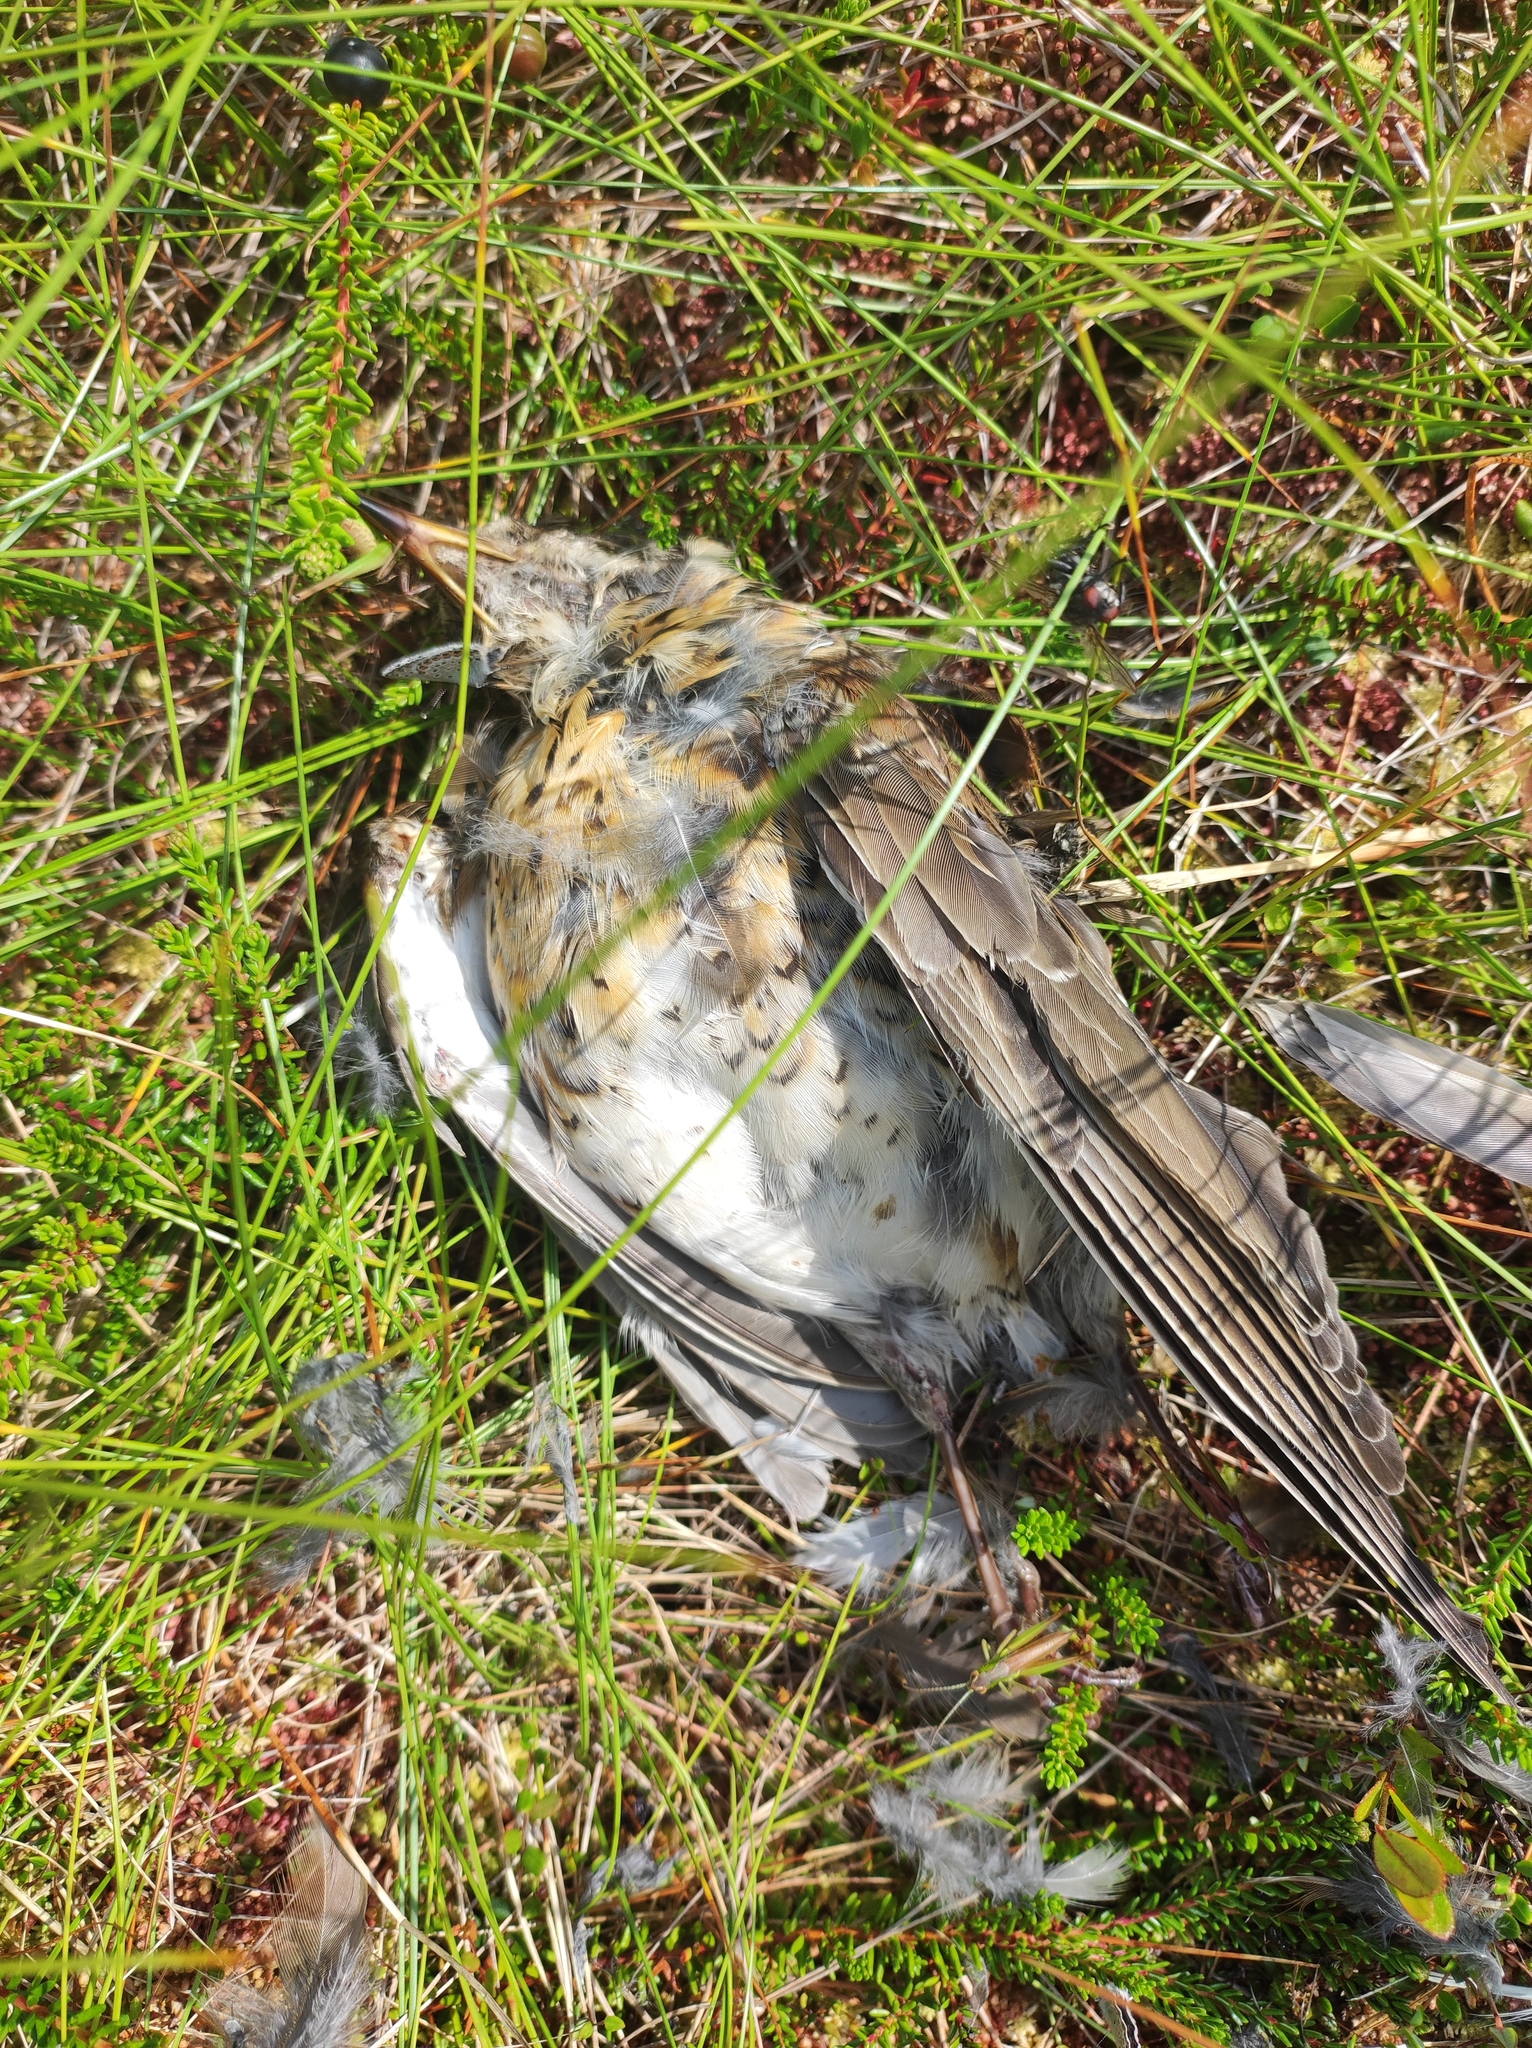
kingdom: Animalia
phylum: Chordata
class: Aves
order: Passeriformes
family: Turdidae
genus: Turdus
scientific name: Turdus pilaris
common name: Fieldfare
